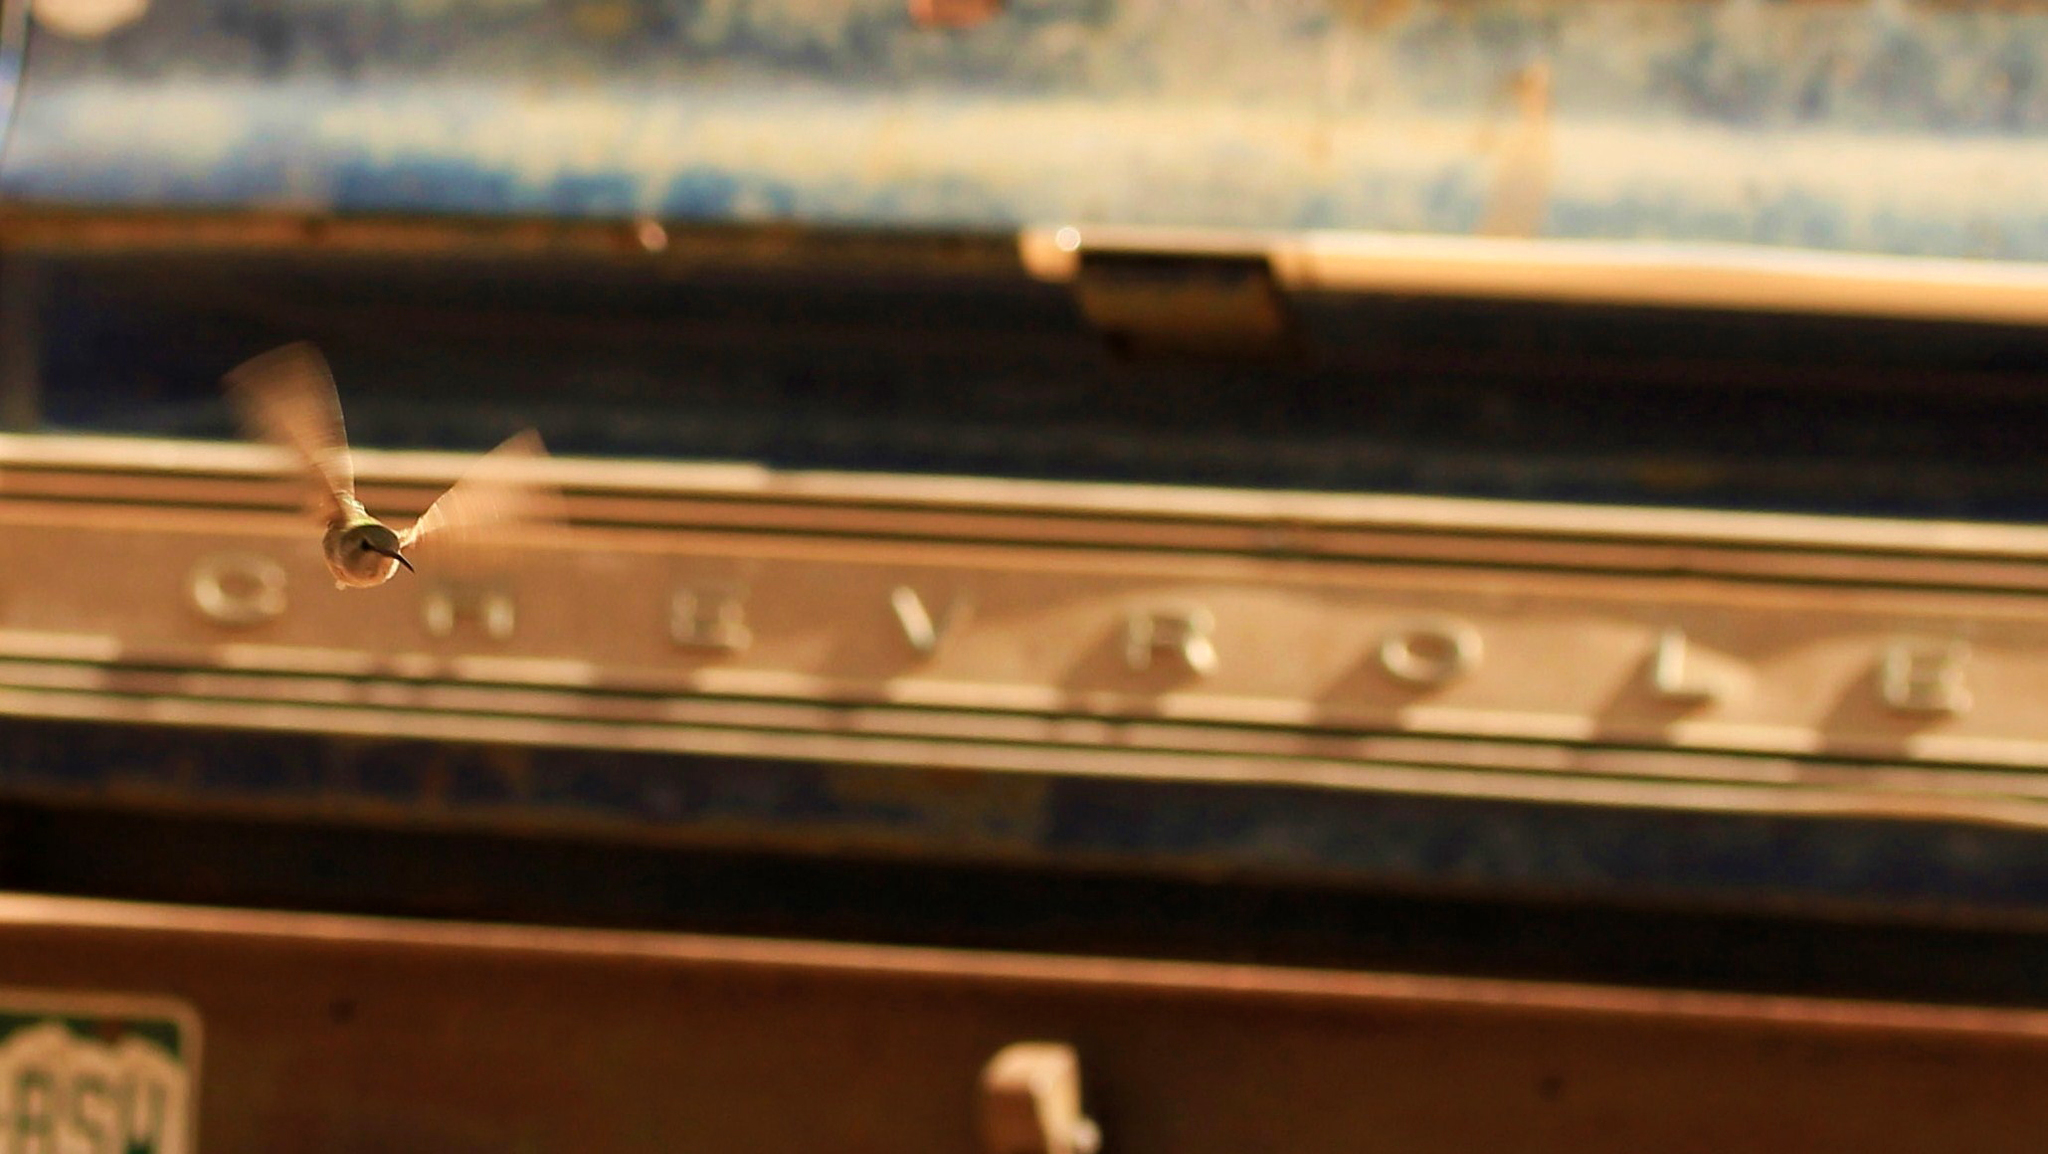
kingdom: Animalia
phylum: Chordata
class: Aves
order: Apodiformes
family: Trochilidae
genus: Calypte
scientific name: Calypte costae
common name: Costa's hummingbird
